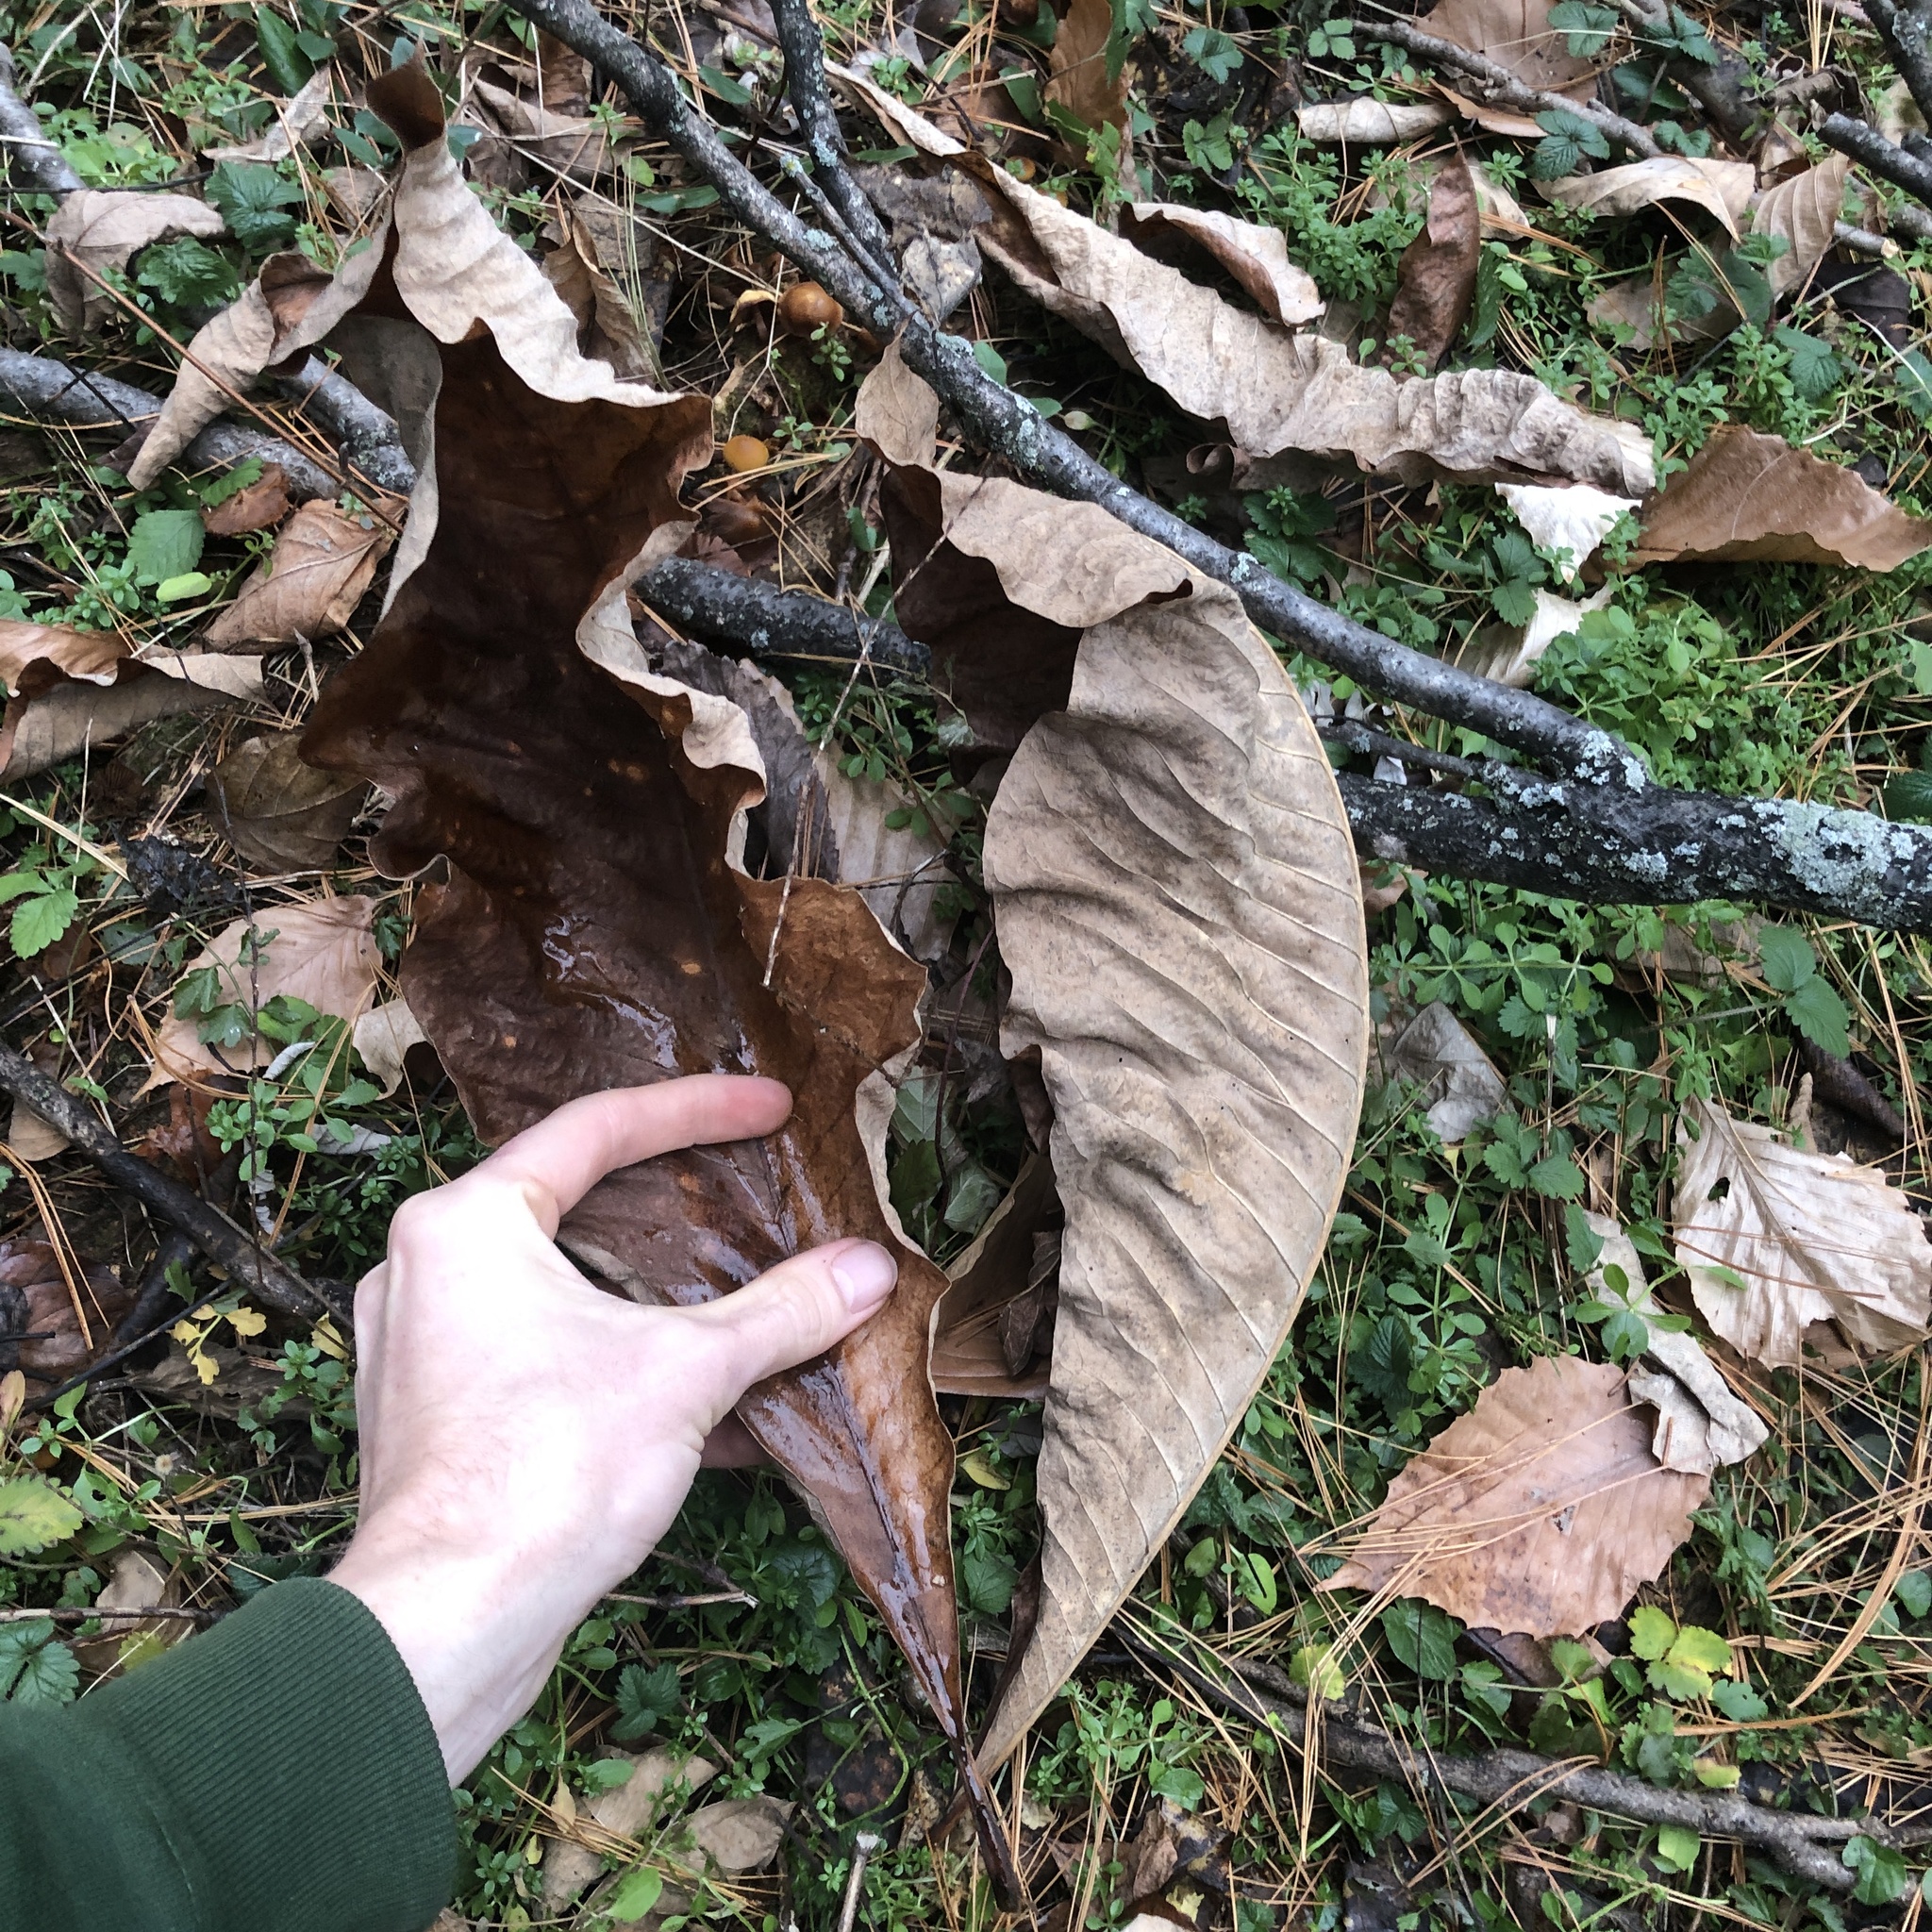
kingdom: Plantae
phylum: Tracheophyta
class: Magnoliopsida
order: Magnoliales
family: Magnoliaceae
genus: Magnolia
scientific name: Magnolia tripetala
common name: Umbrella magnolia
